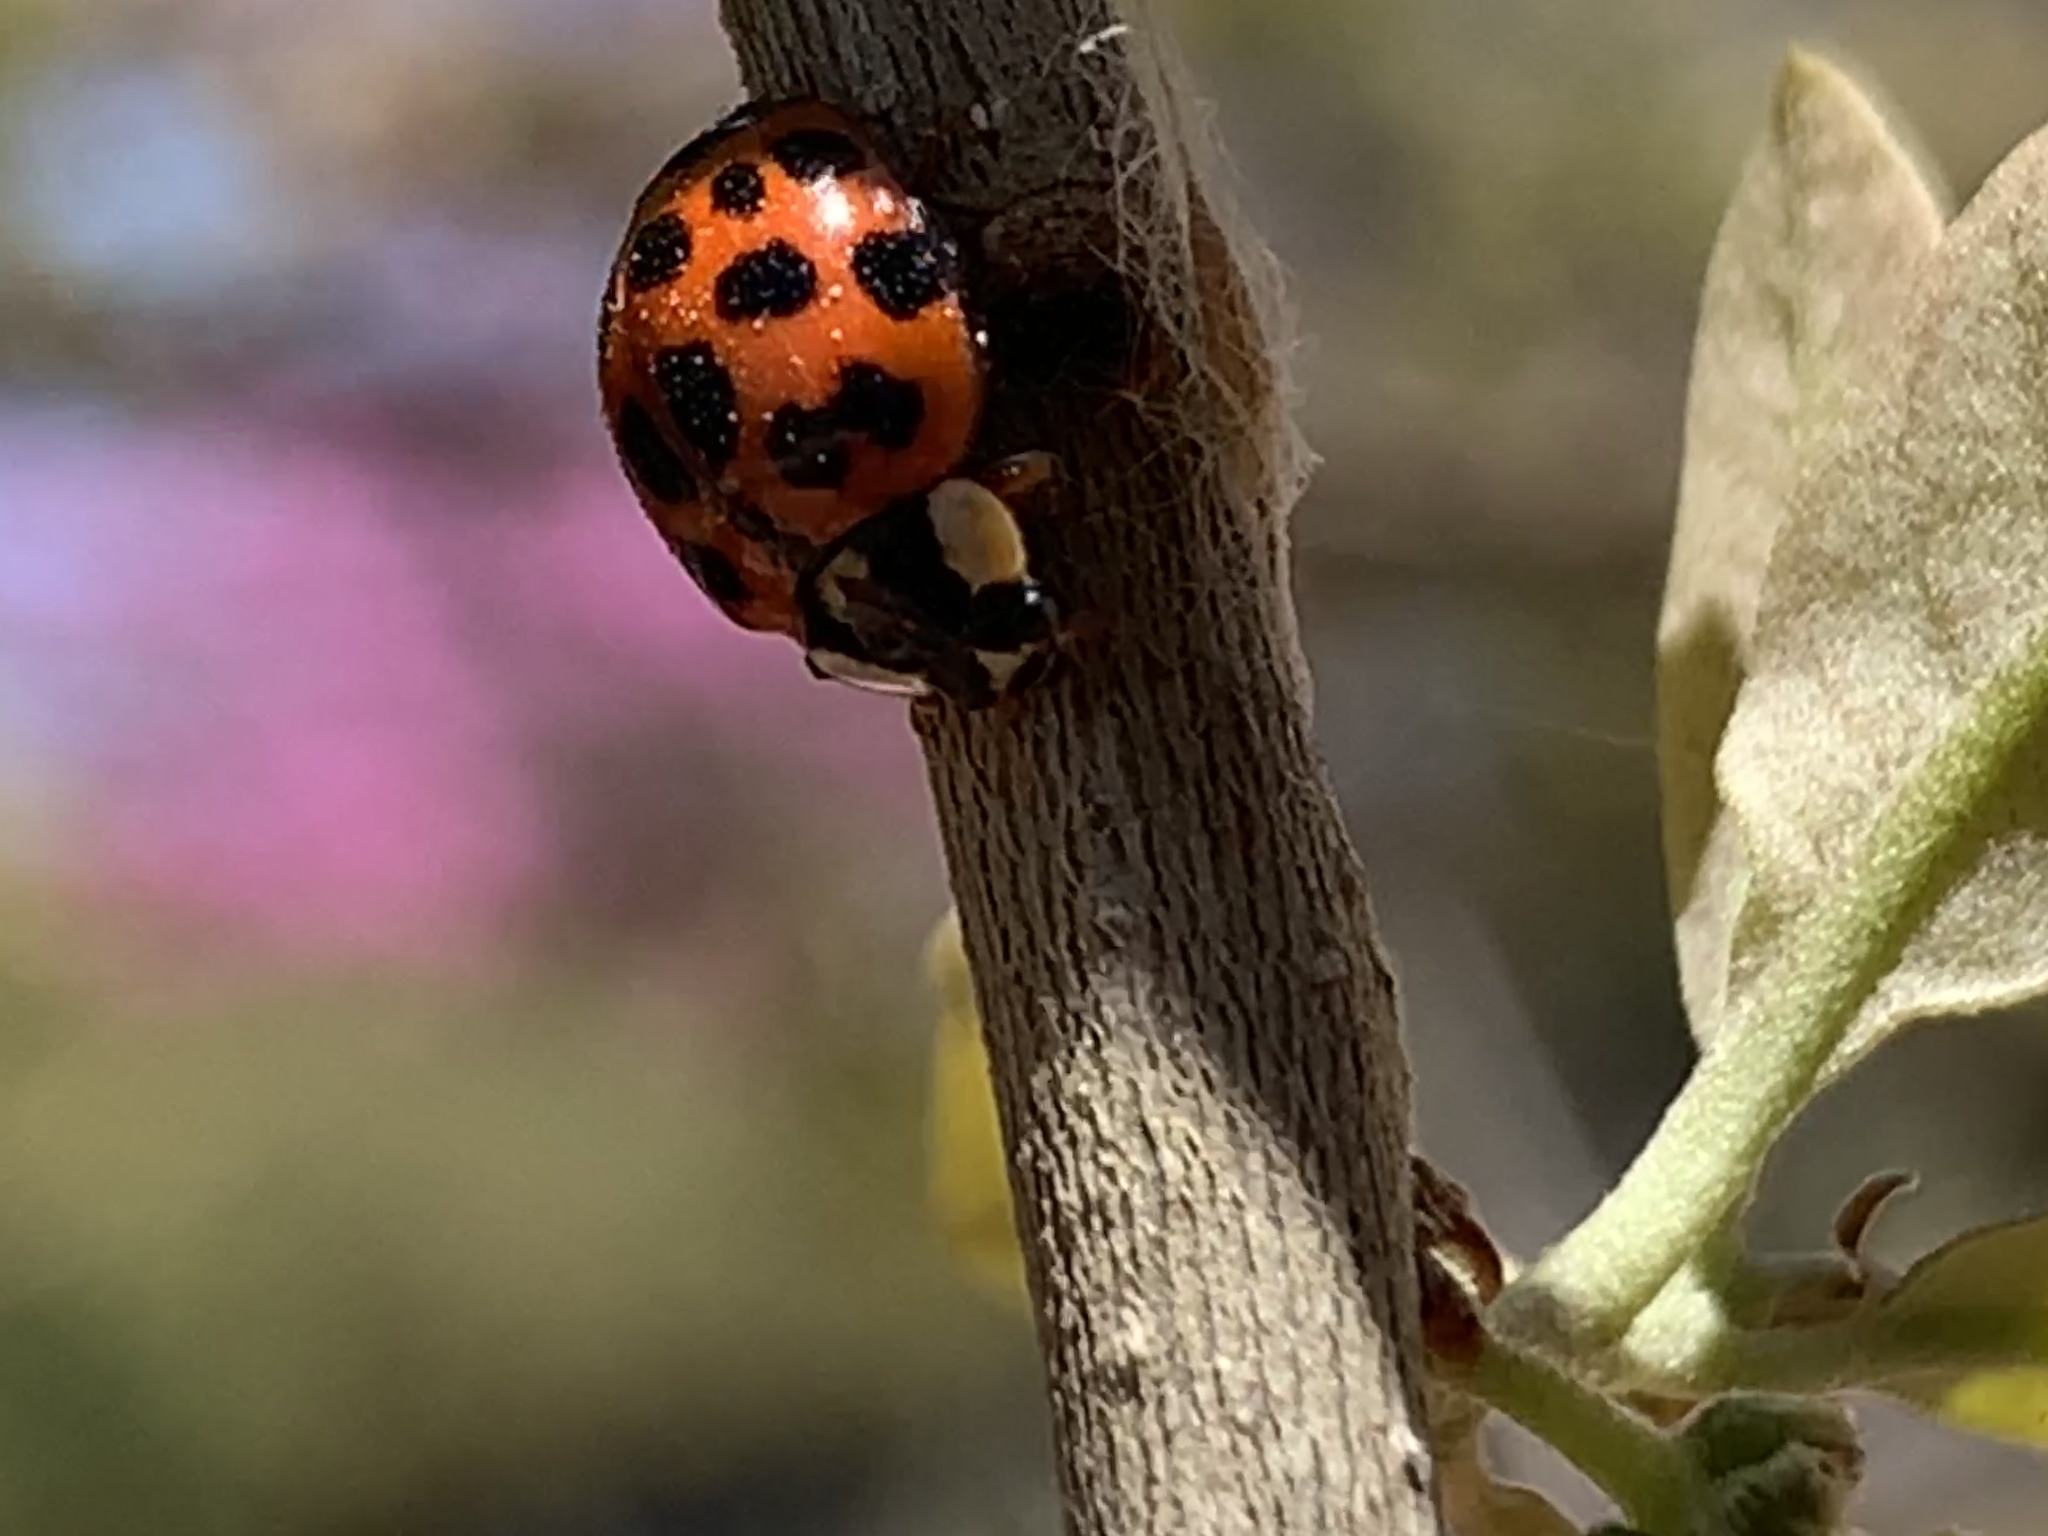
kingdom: Animalia
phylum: Arthropoda
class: Insecta
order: Coleoptera
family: Coccinellidae
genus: Harmonia
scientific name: Harmonia axyridis
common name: Harlequin ladybird
